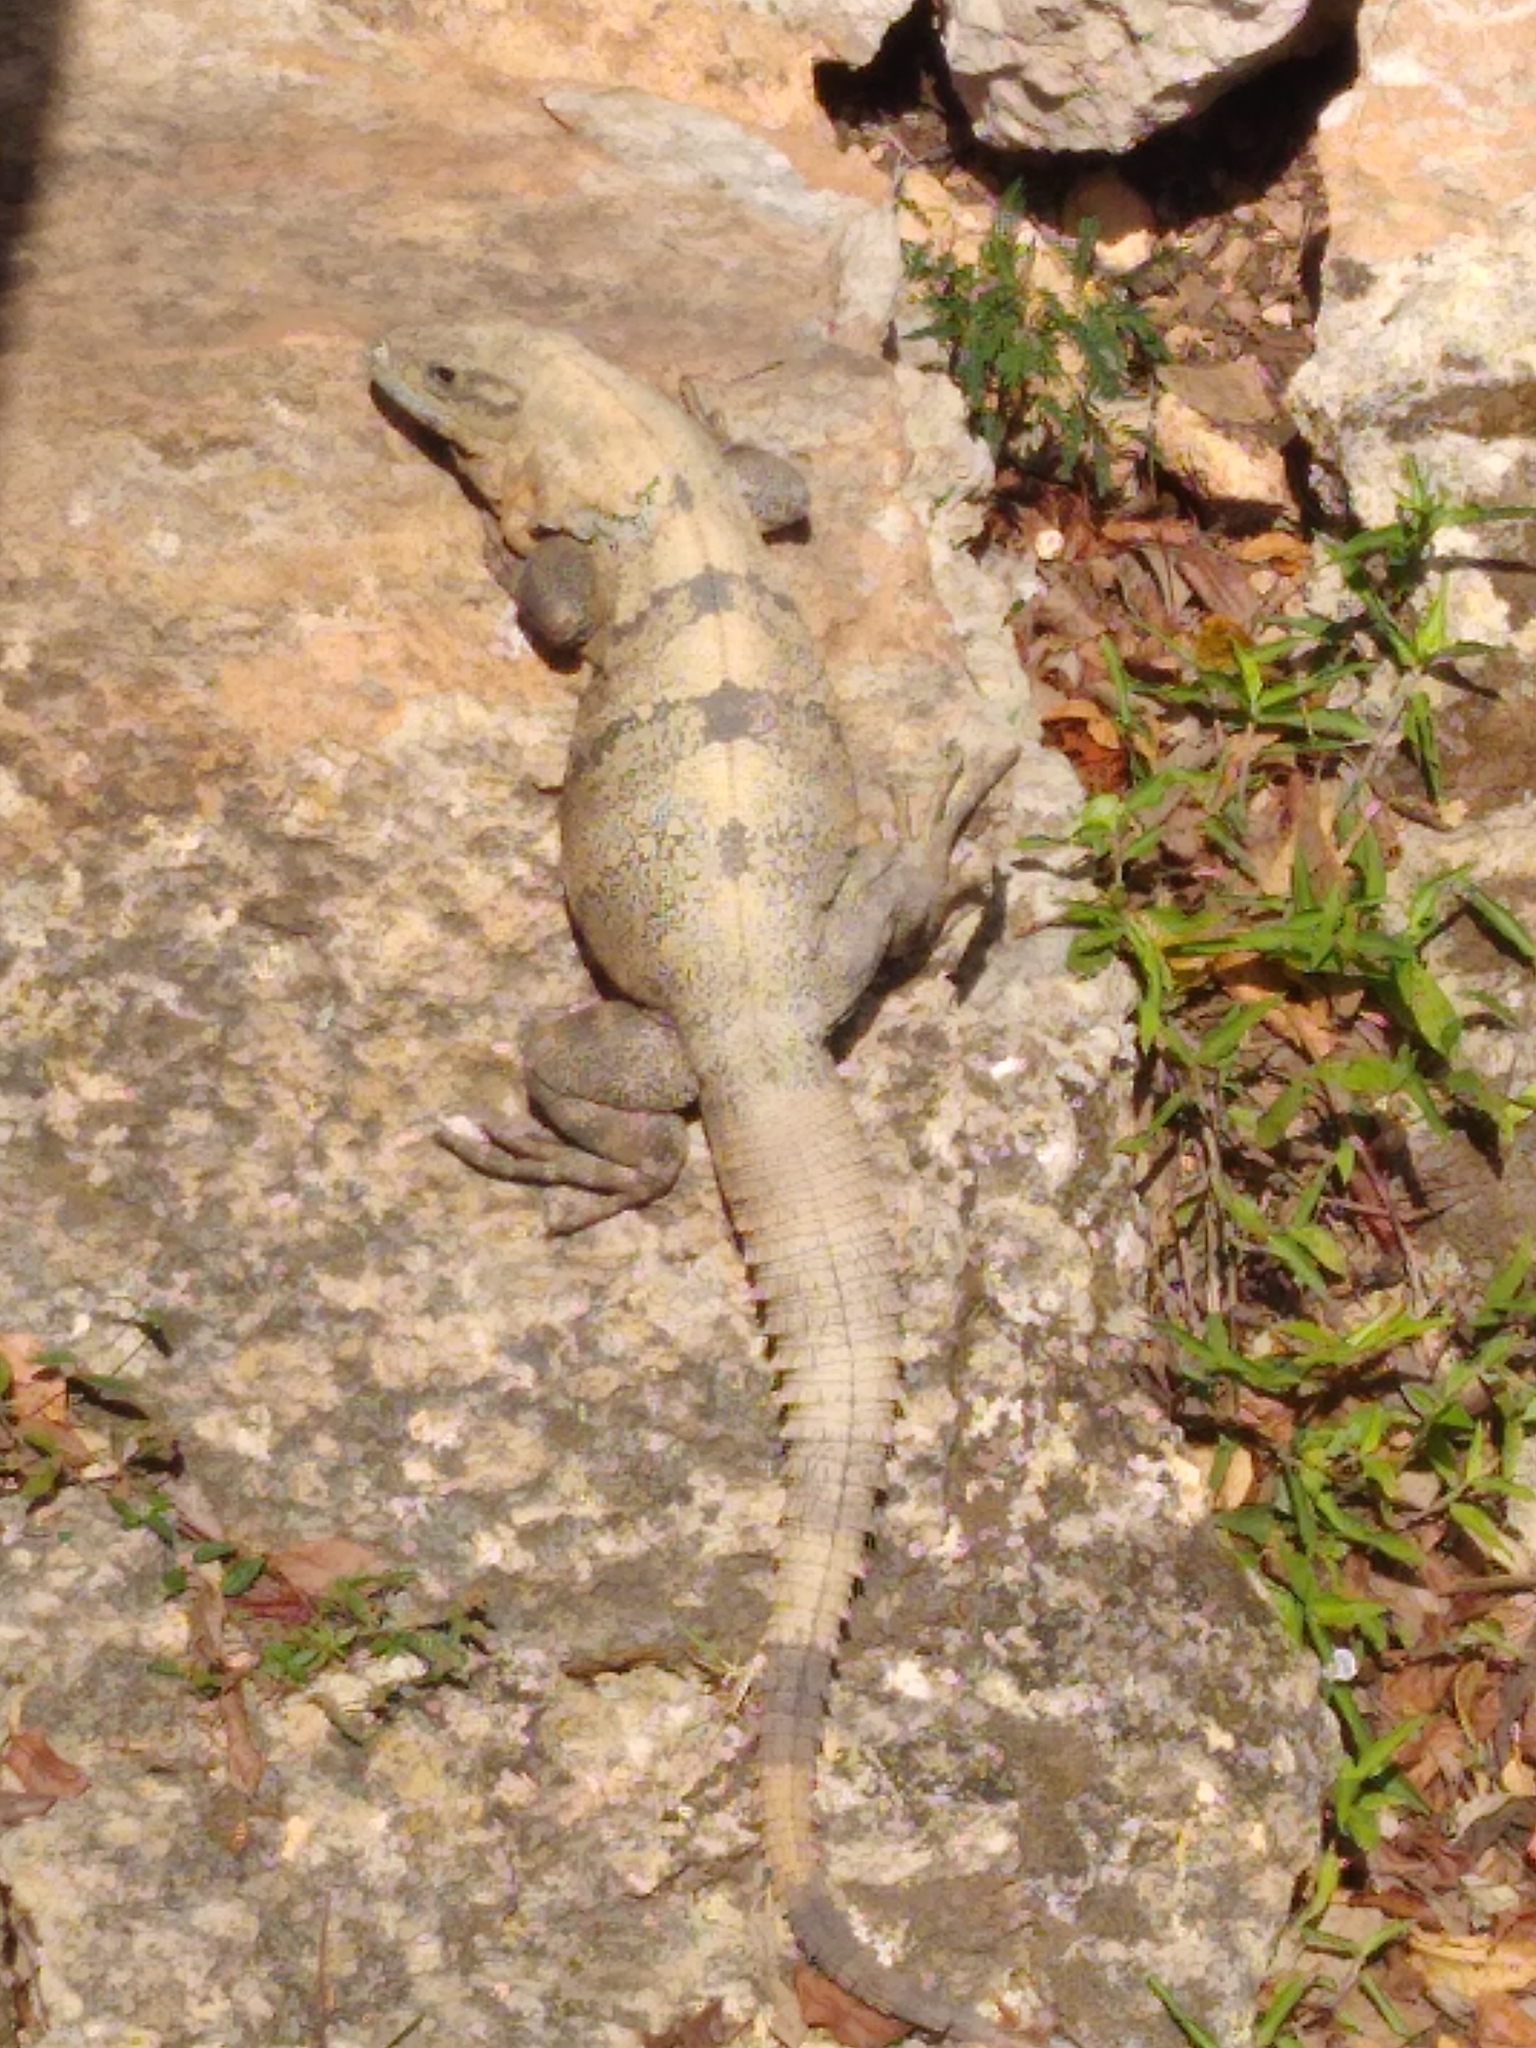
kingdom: Animalia
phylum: Chordata
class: Squamata
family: Iguanidae
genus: Ctenosaura
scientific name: Ctenosaura similis
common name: Black spiny-tailed iguana
